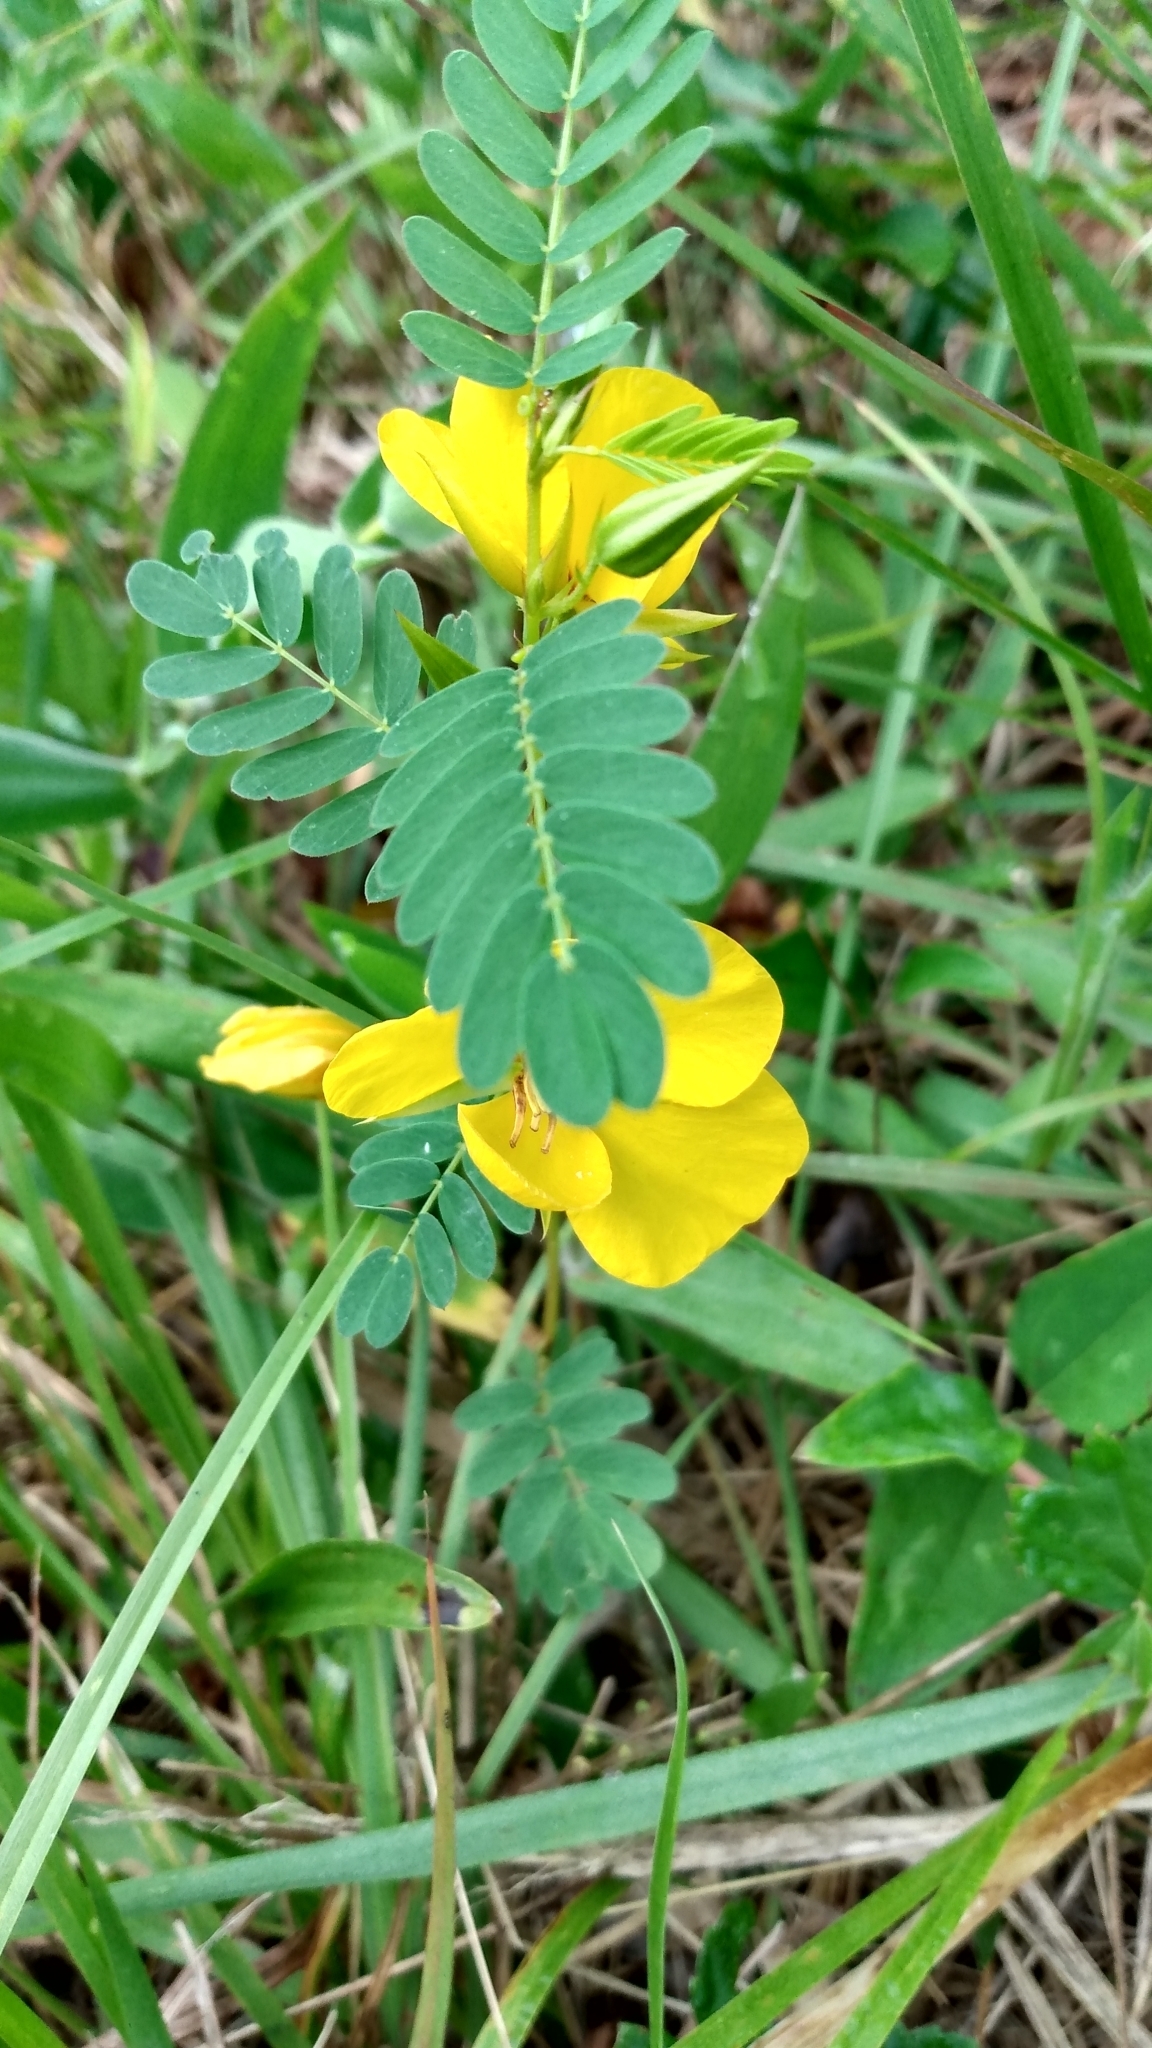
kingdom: Plantae
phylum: Tracheophyta
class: Magnoliopsida
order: Fabales
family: Fabaceae
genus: Chamaecrista
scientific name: Chamaecrista fasciculata
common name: Golden cassia
